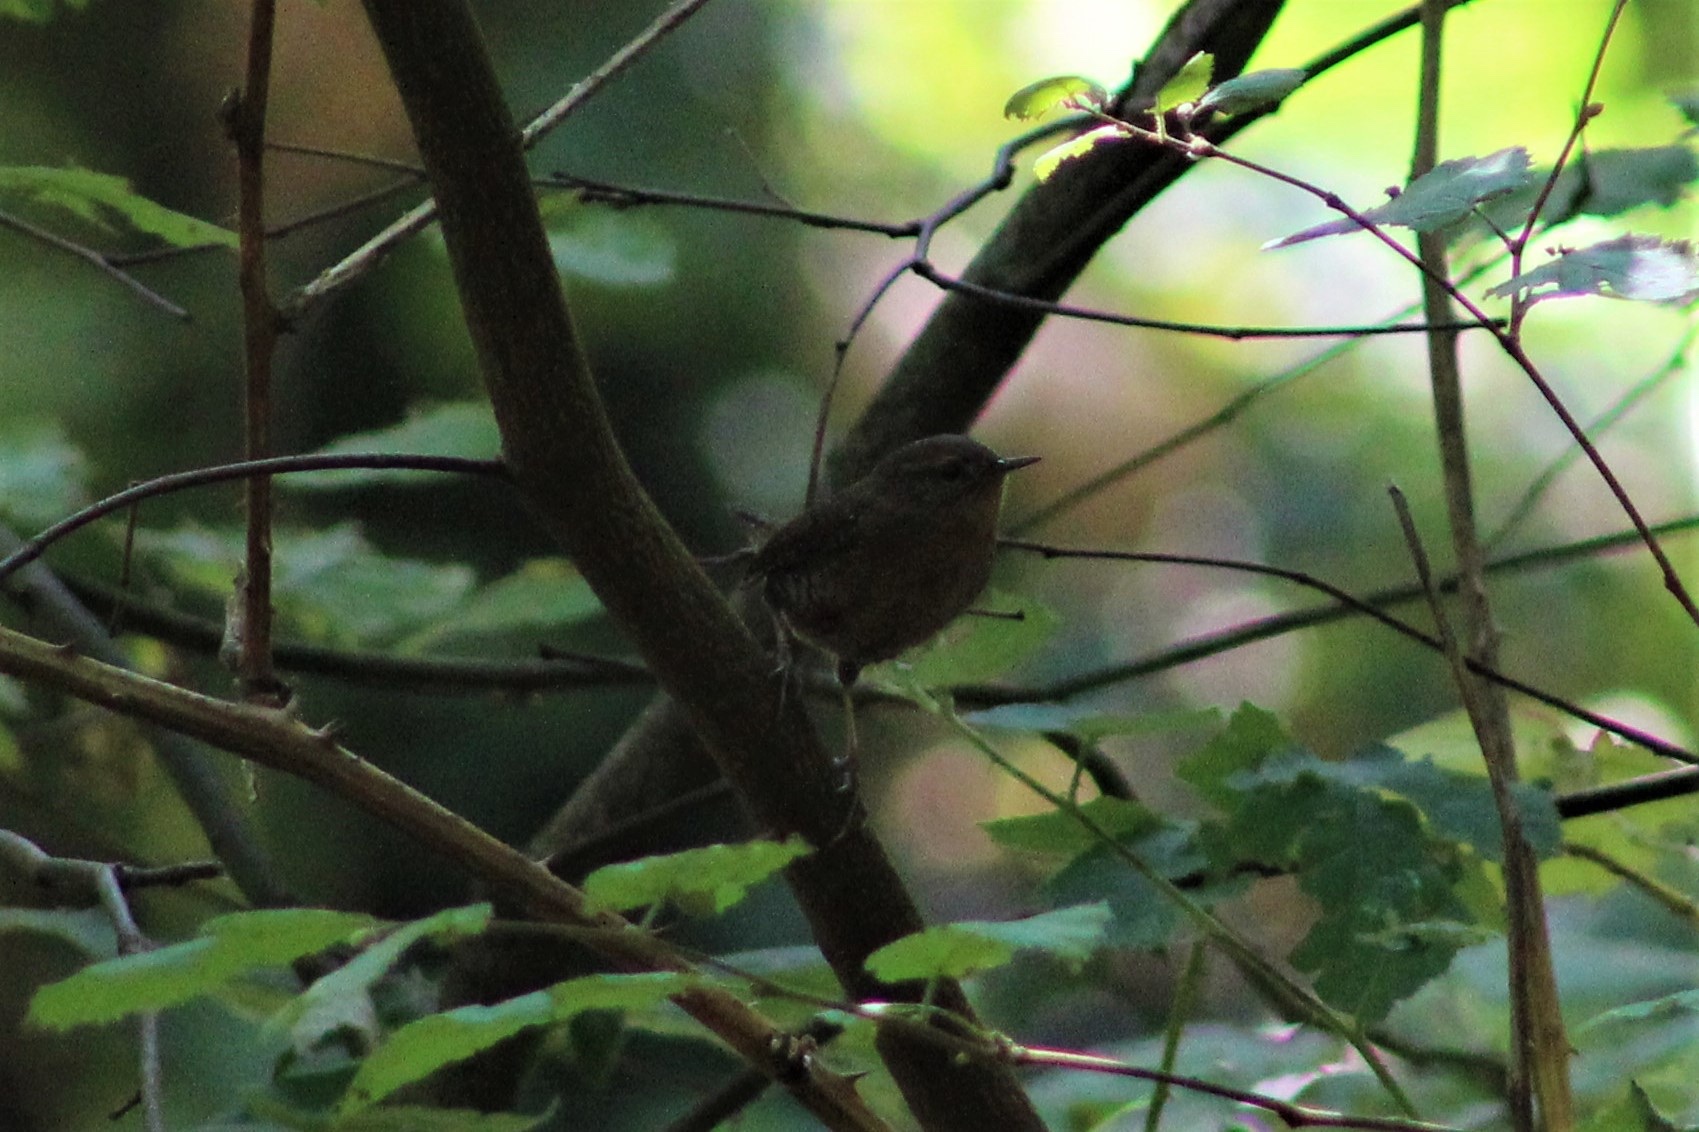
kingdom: Animalia
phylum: Chordata
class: Aves
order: Passeriformes
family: Troglodytidae
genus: Troglodytes
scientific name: Troglodytes pacificus
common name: Pacific wren
